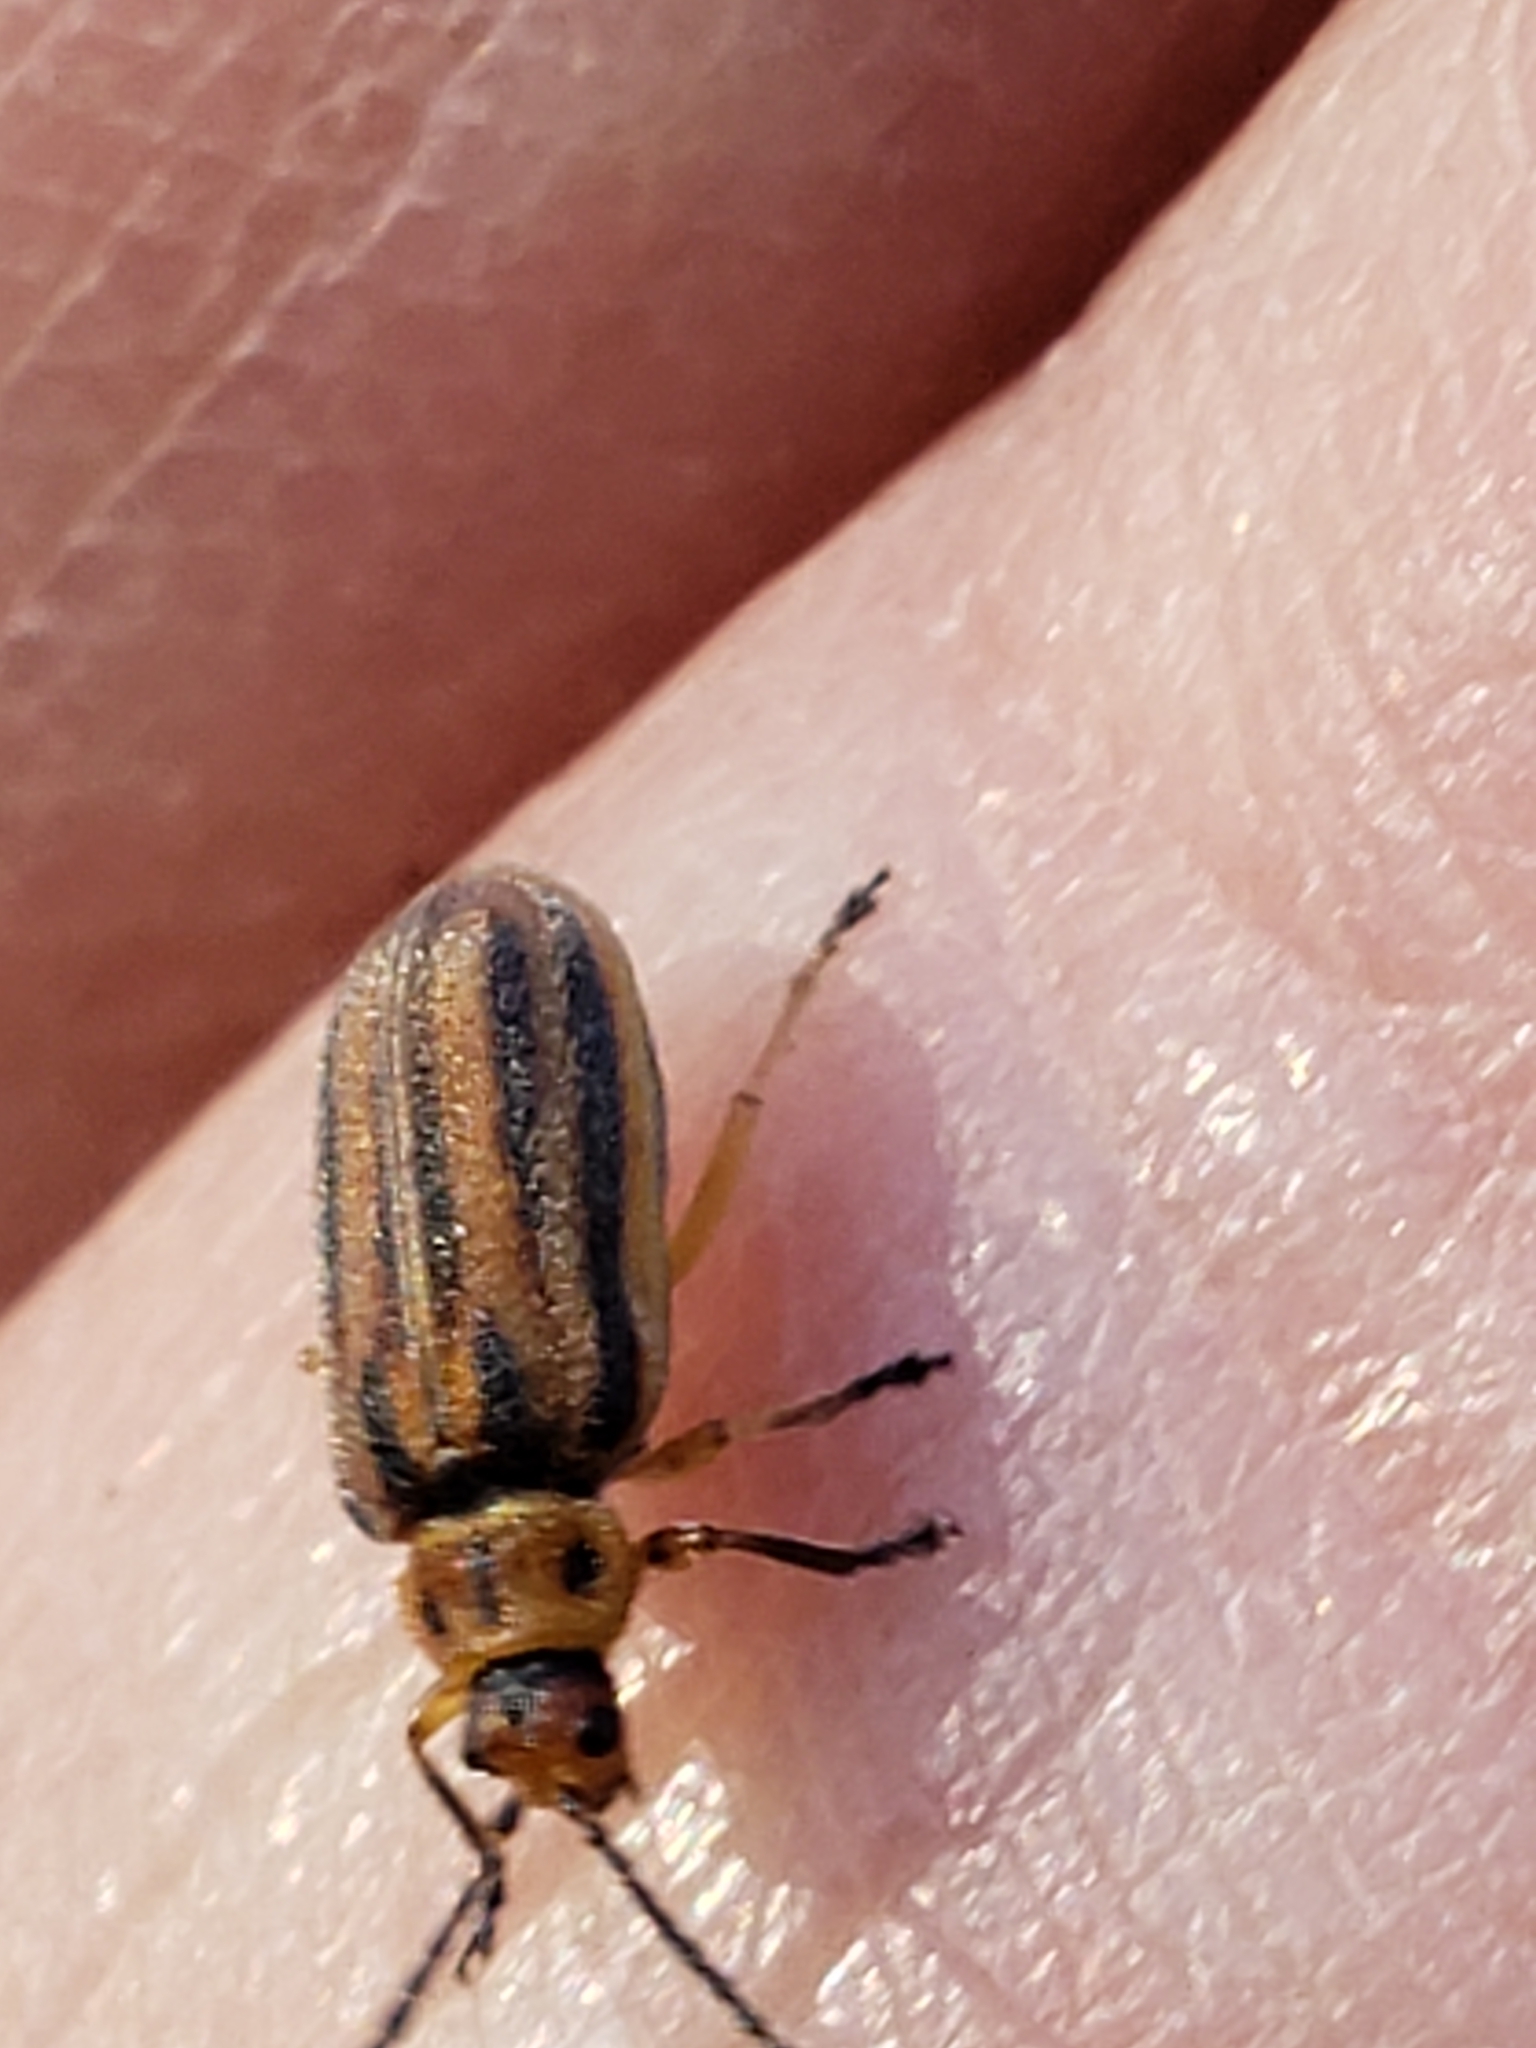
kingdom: Animalia
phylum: Arthropoda
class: Insecta
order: Coleoptera
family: Chrysomelidae
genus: Ophraella
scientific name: Ophraella notata
